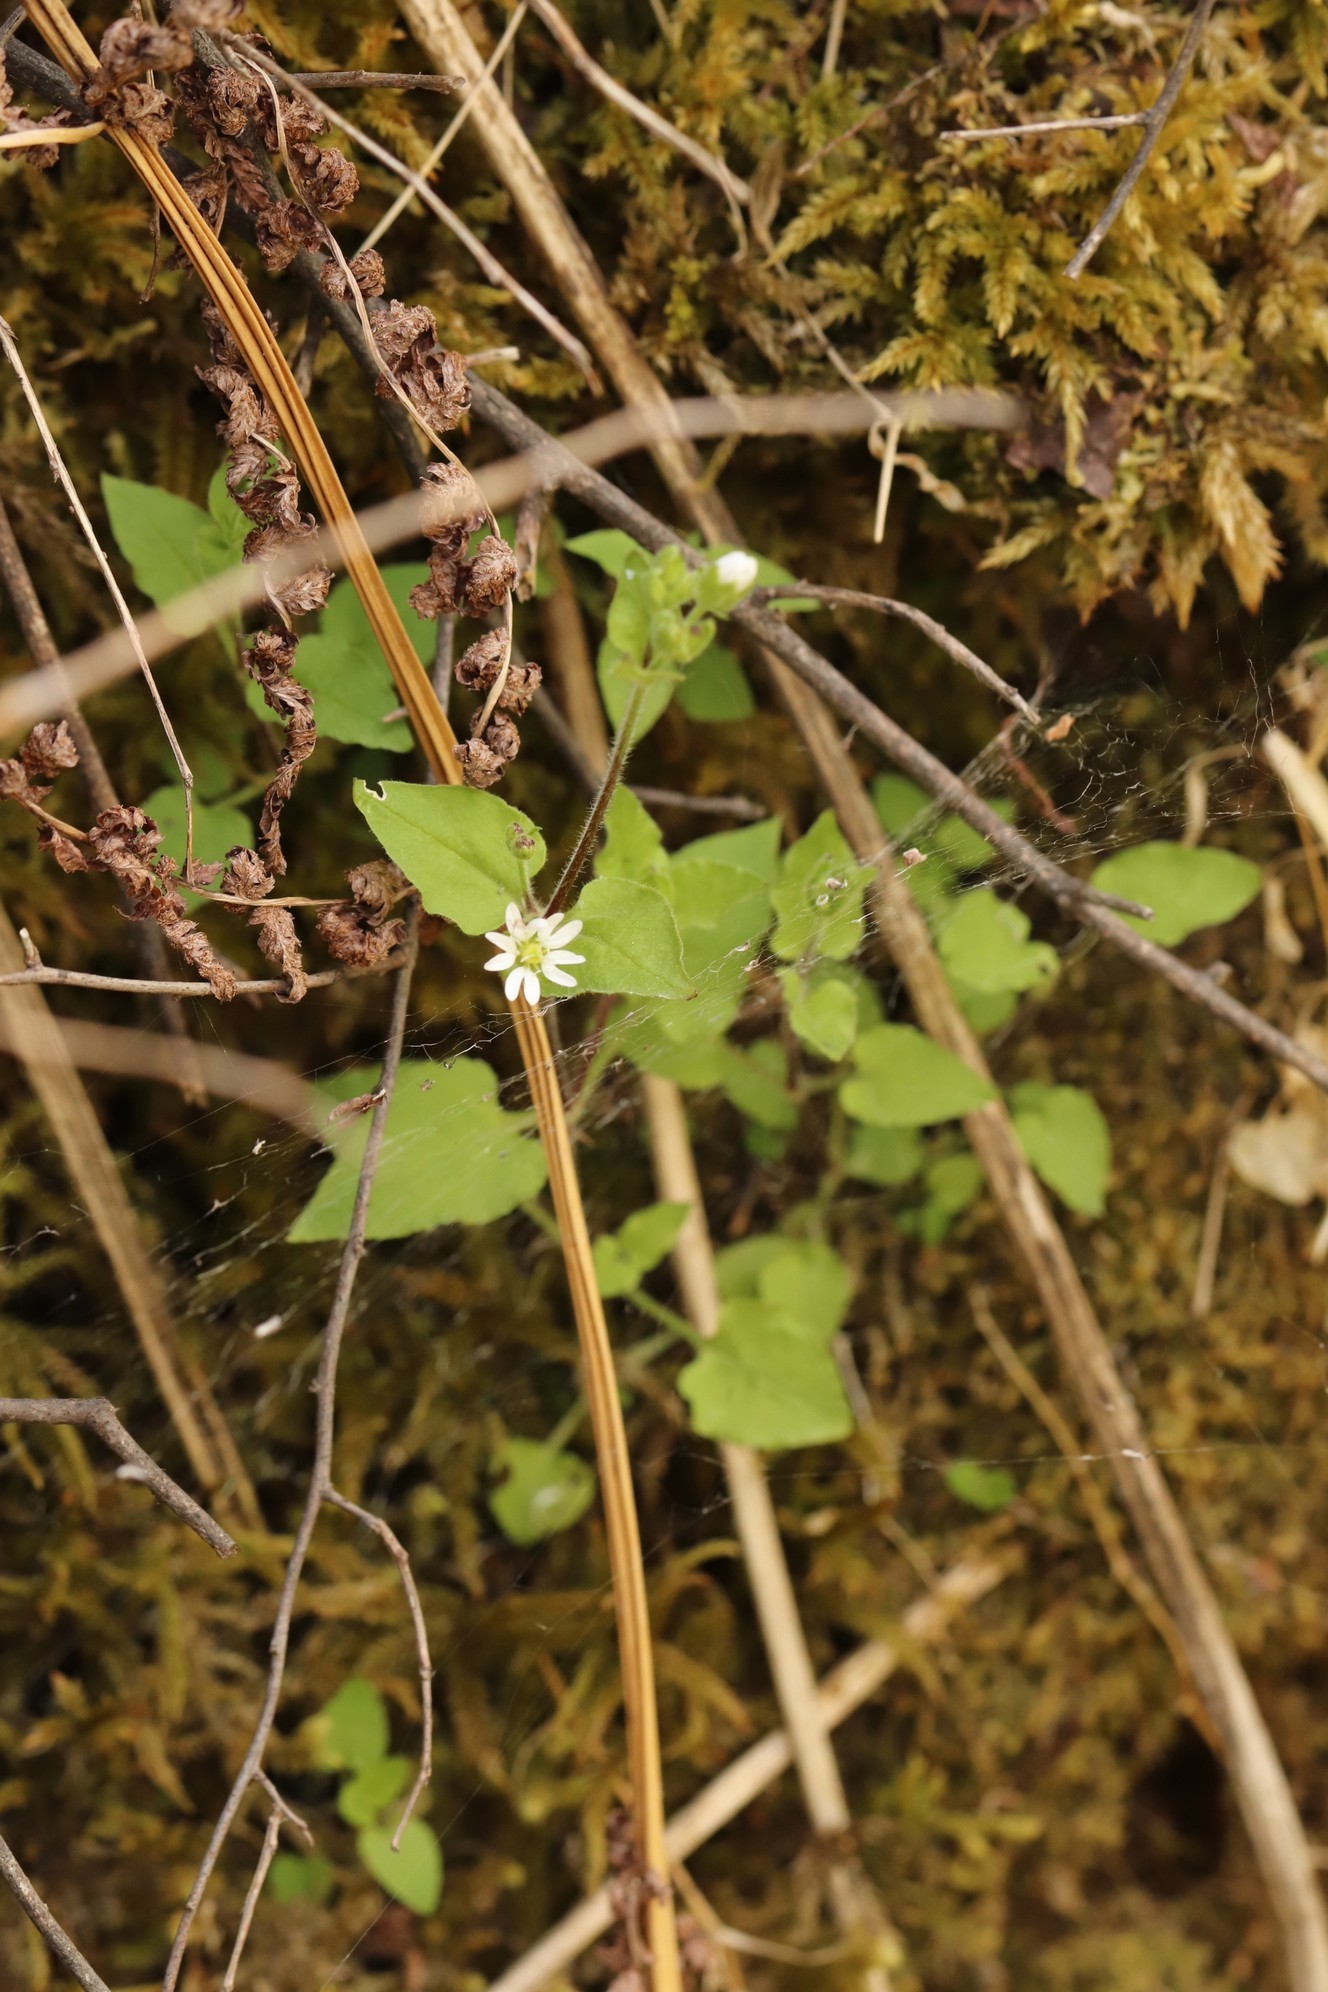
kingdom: Plantae
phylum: Tracheophyta
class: Magnoliopsida
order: Caryophyllales
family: Caryophyllaceae
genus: Stellaria
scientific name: Stellaria bungeana
